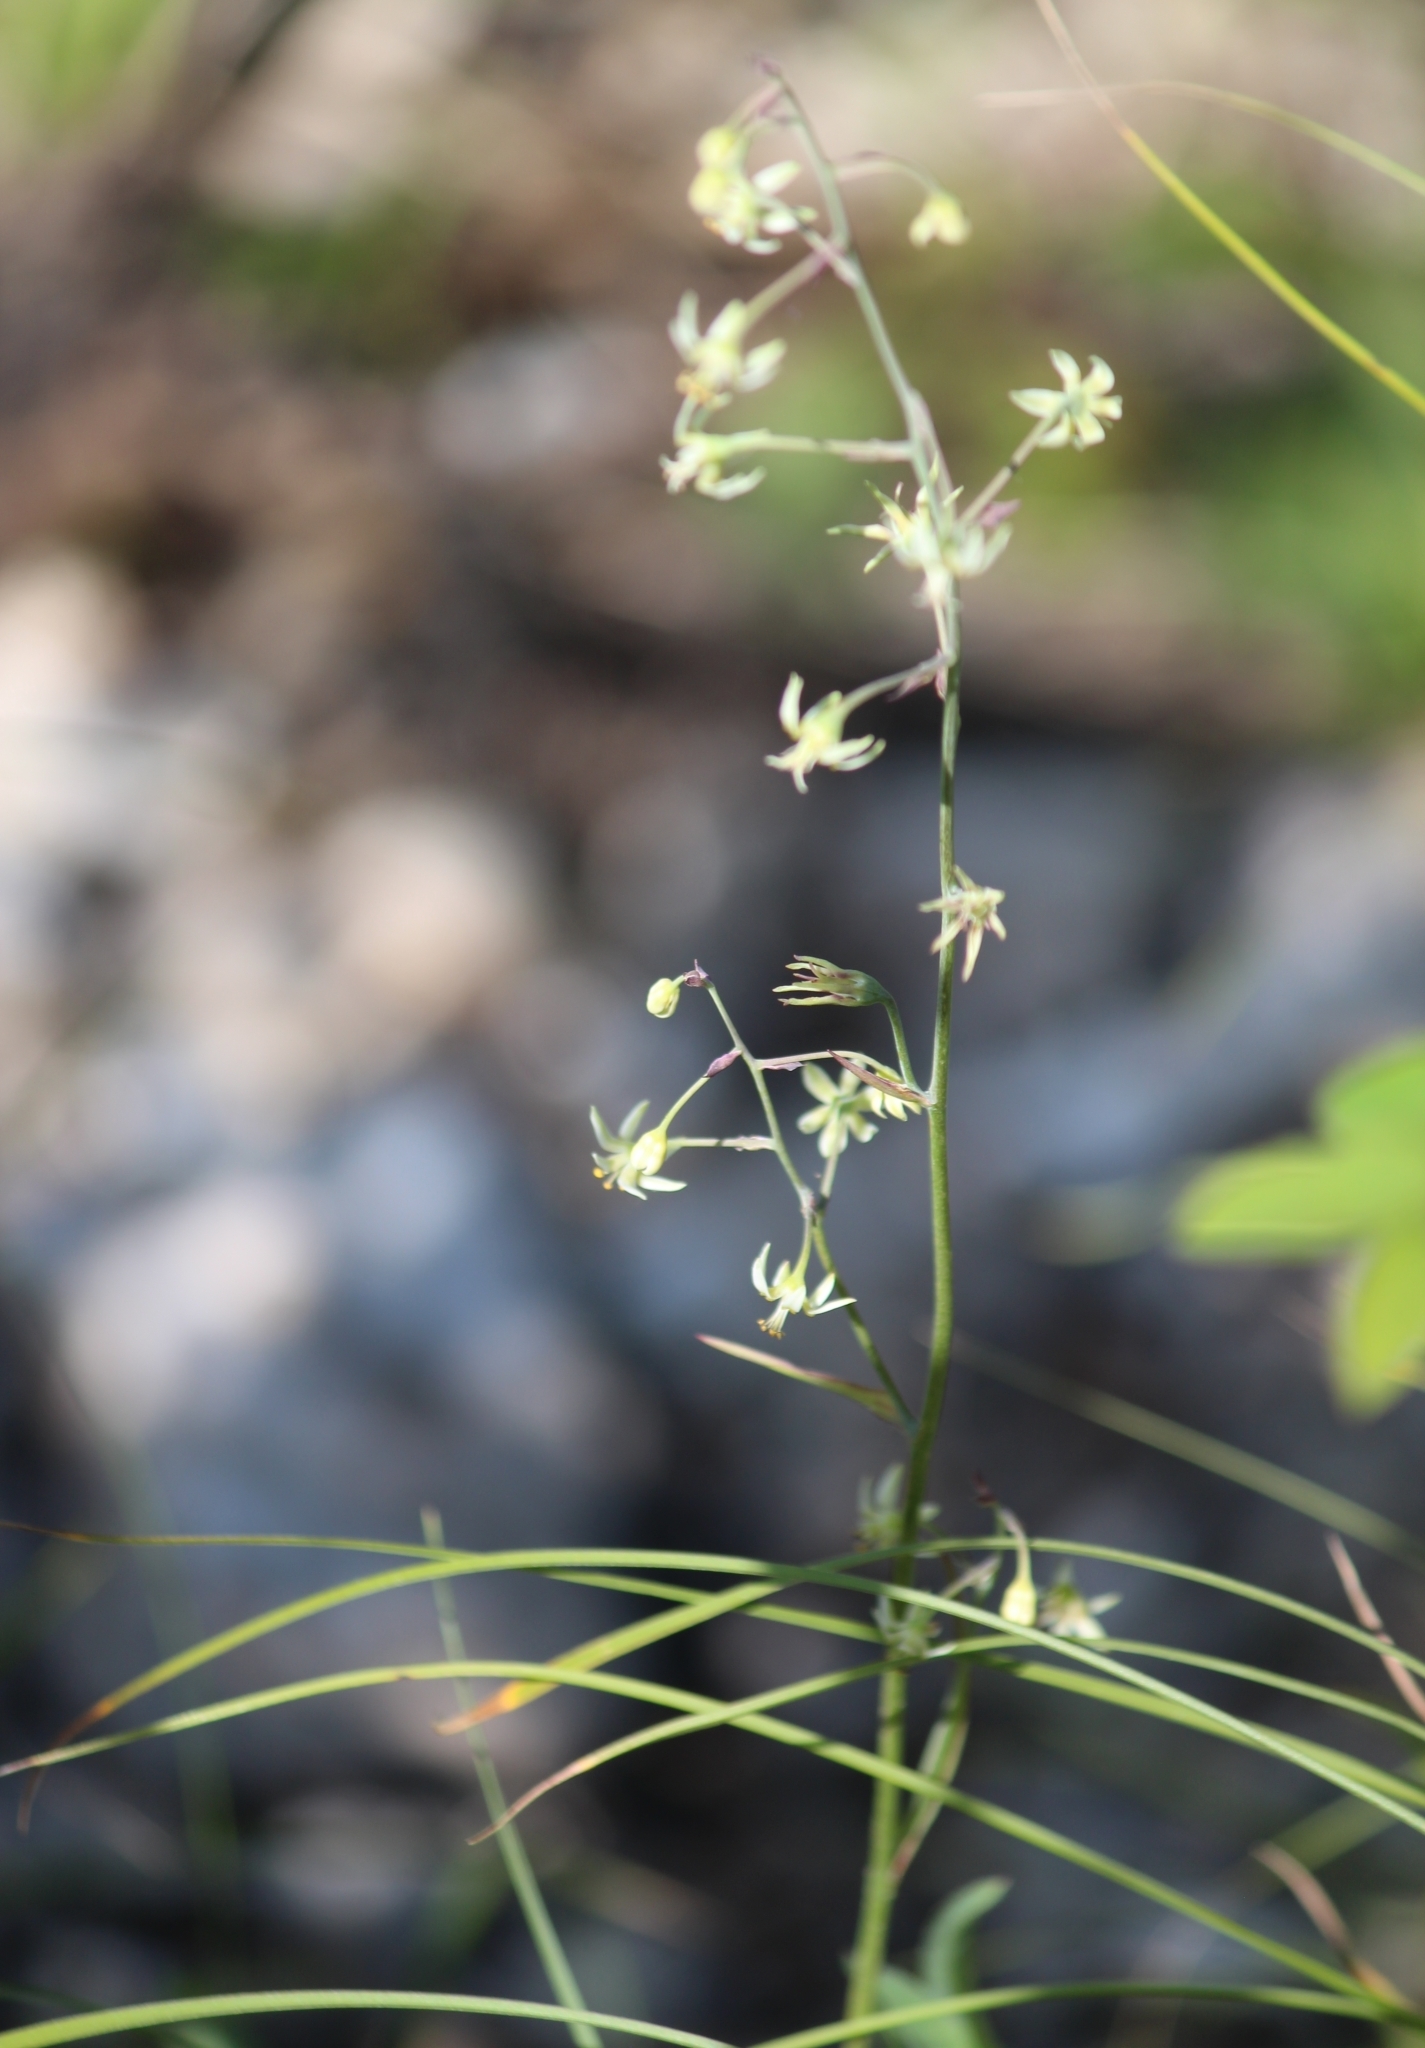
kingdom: Plantae
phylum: Tracheophyta
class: Liliopsida
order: Liliales
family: Melanthiaceae
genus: Anticlea
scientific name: Anticlea sibirica
